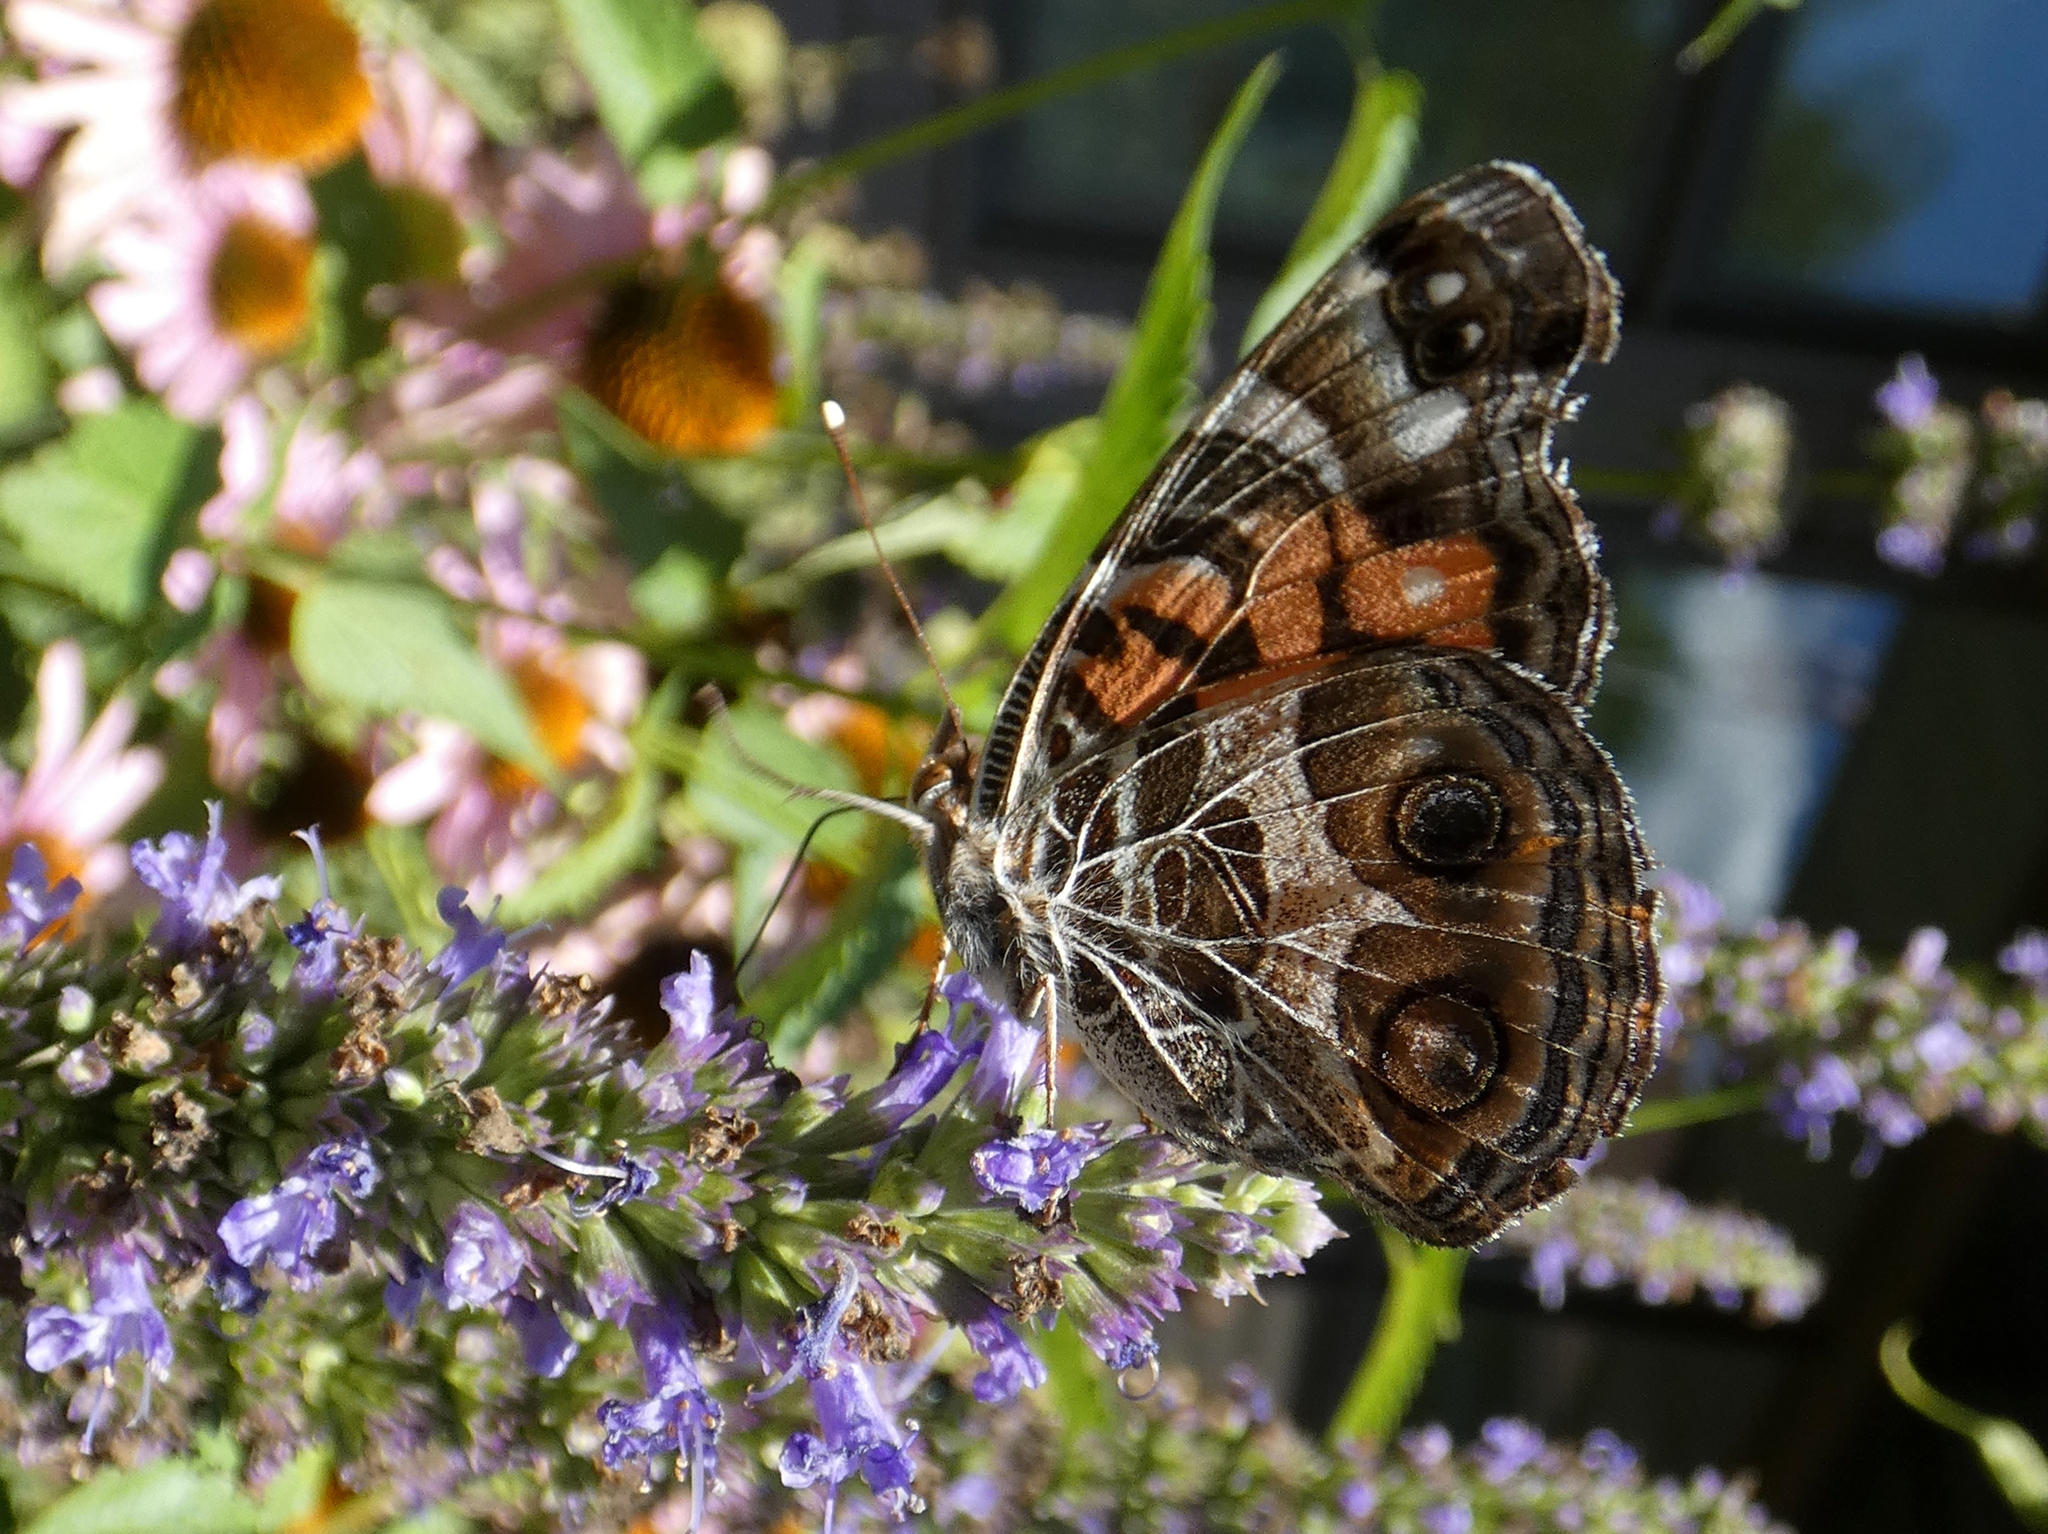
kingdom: Animalia
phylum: Arthropoda
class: Insecta
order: Lepidoptera
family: Nymphalidae
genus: Vanessa
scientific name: Vanessa virginiensis
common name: American lady
